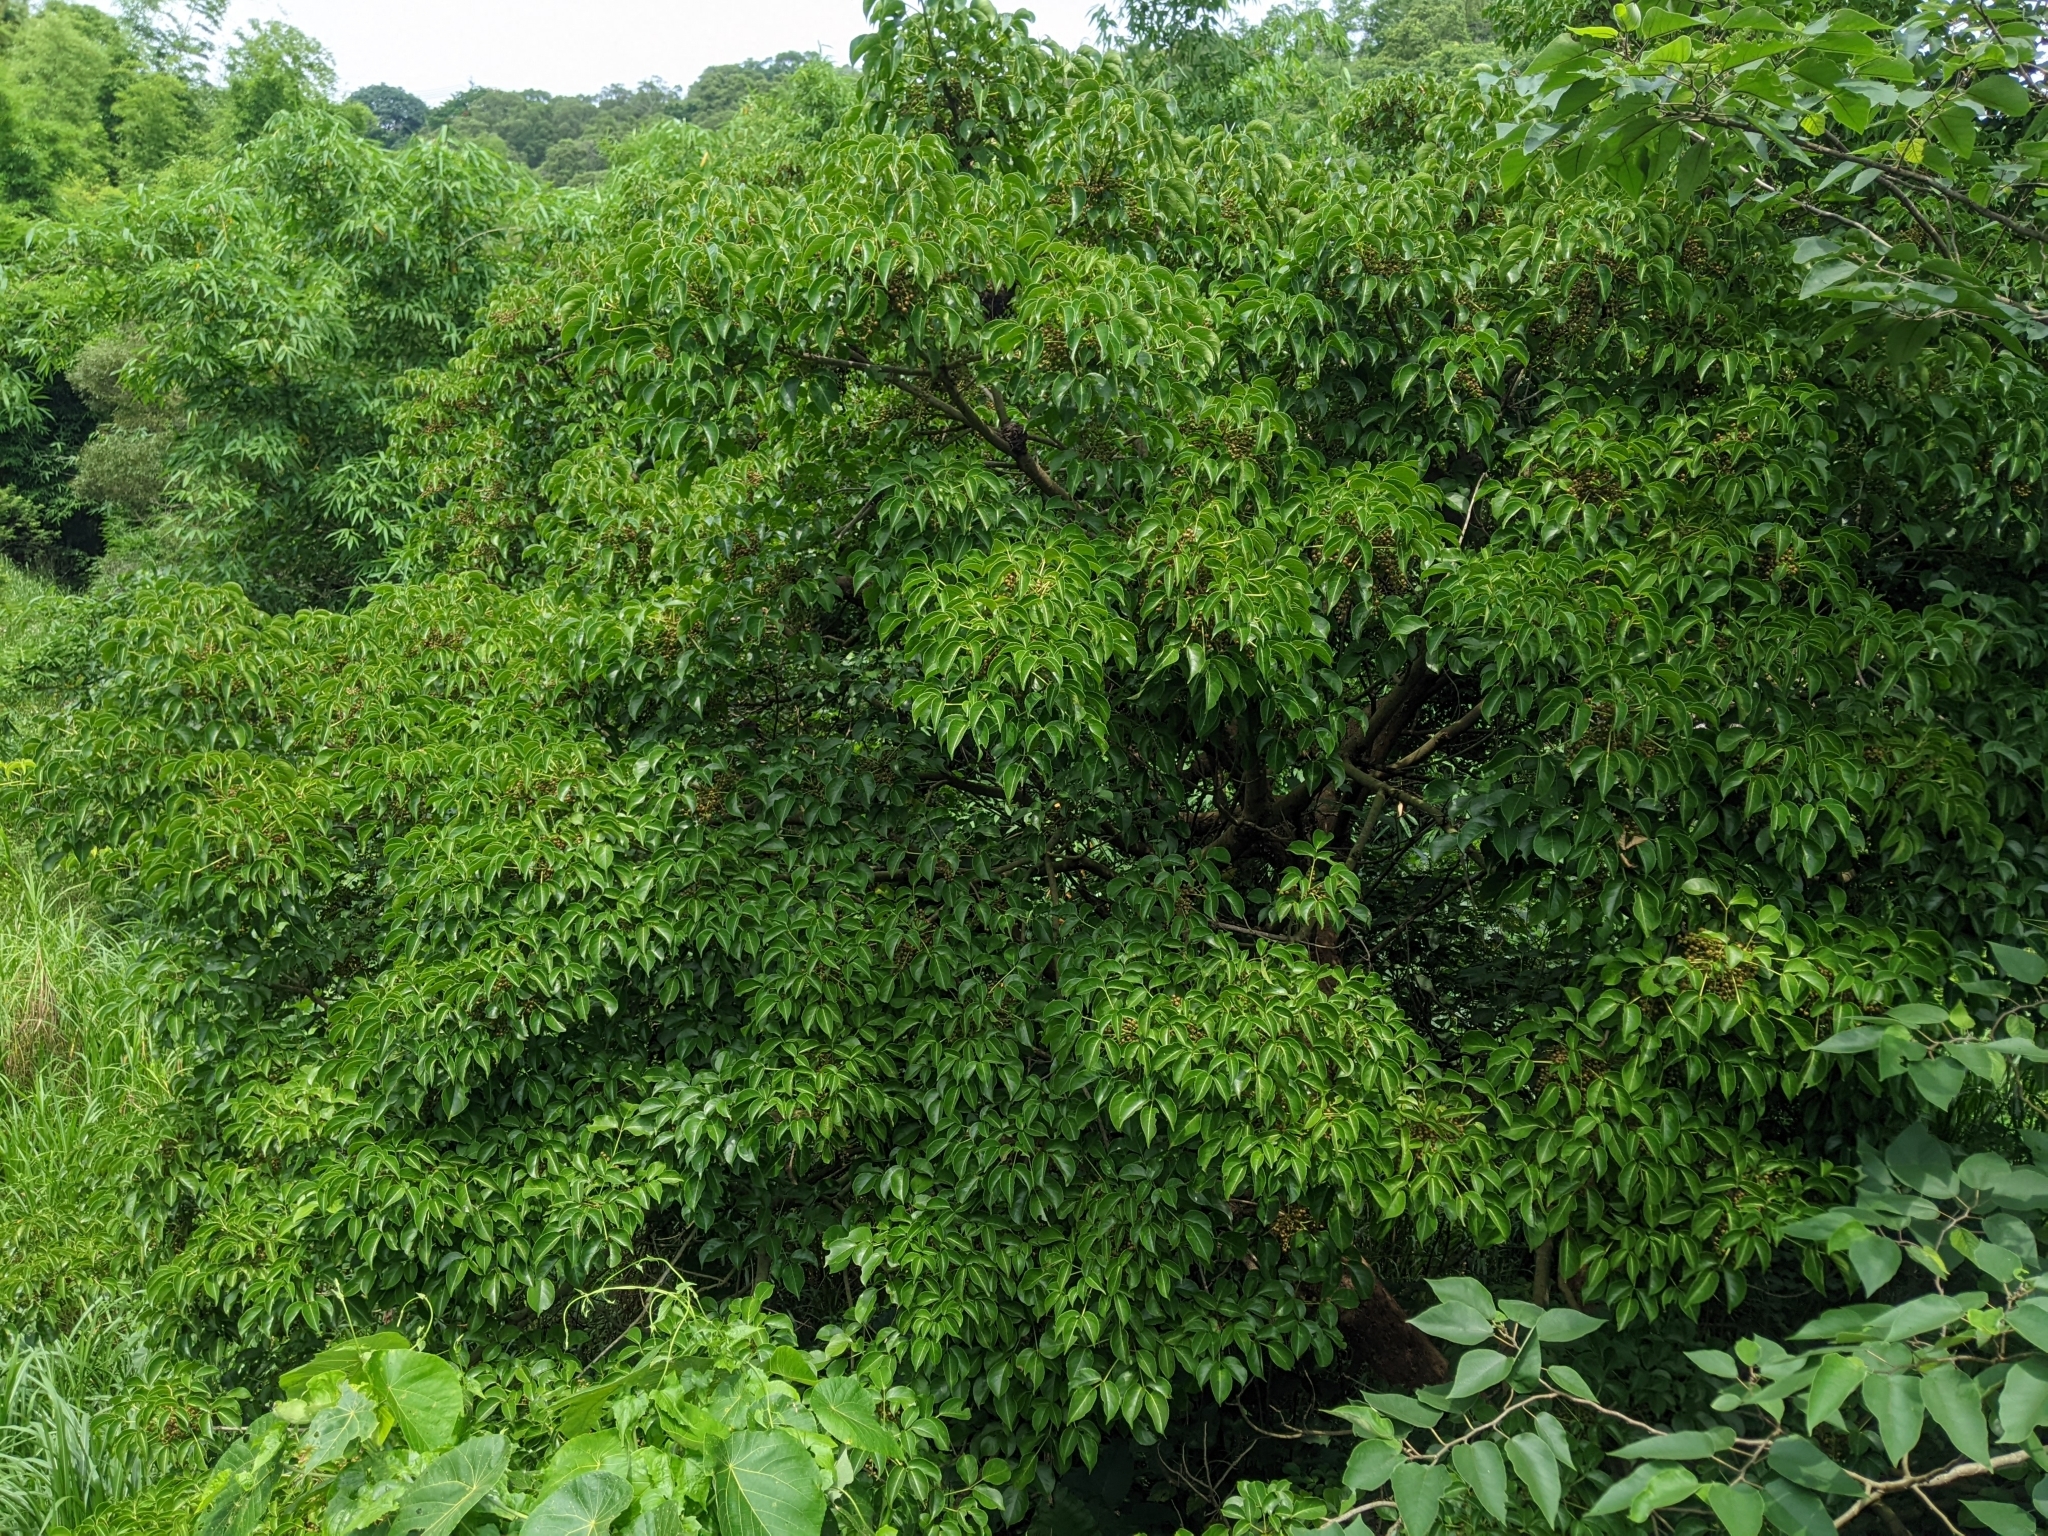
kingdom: Plantae
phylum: Tracheophyta
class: Magnoliopsida
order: Malpighiales
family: Phyllanthaceae
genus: Bischofia
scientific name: Bischofia javanica
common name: Javanese bishopwood
